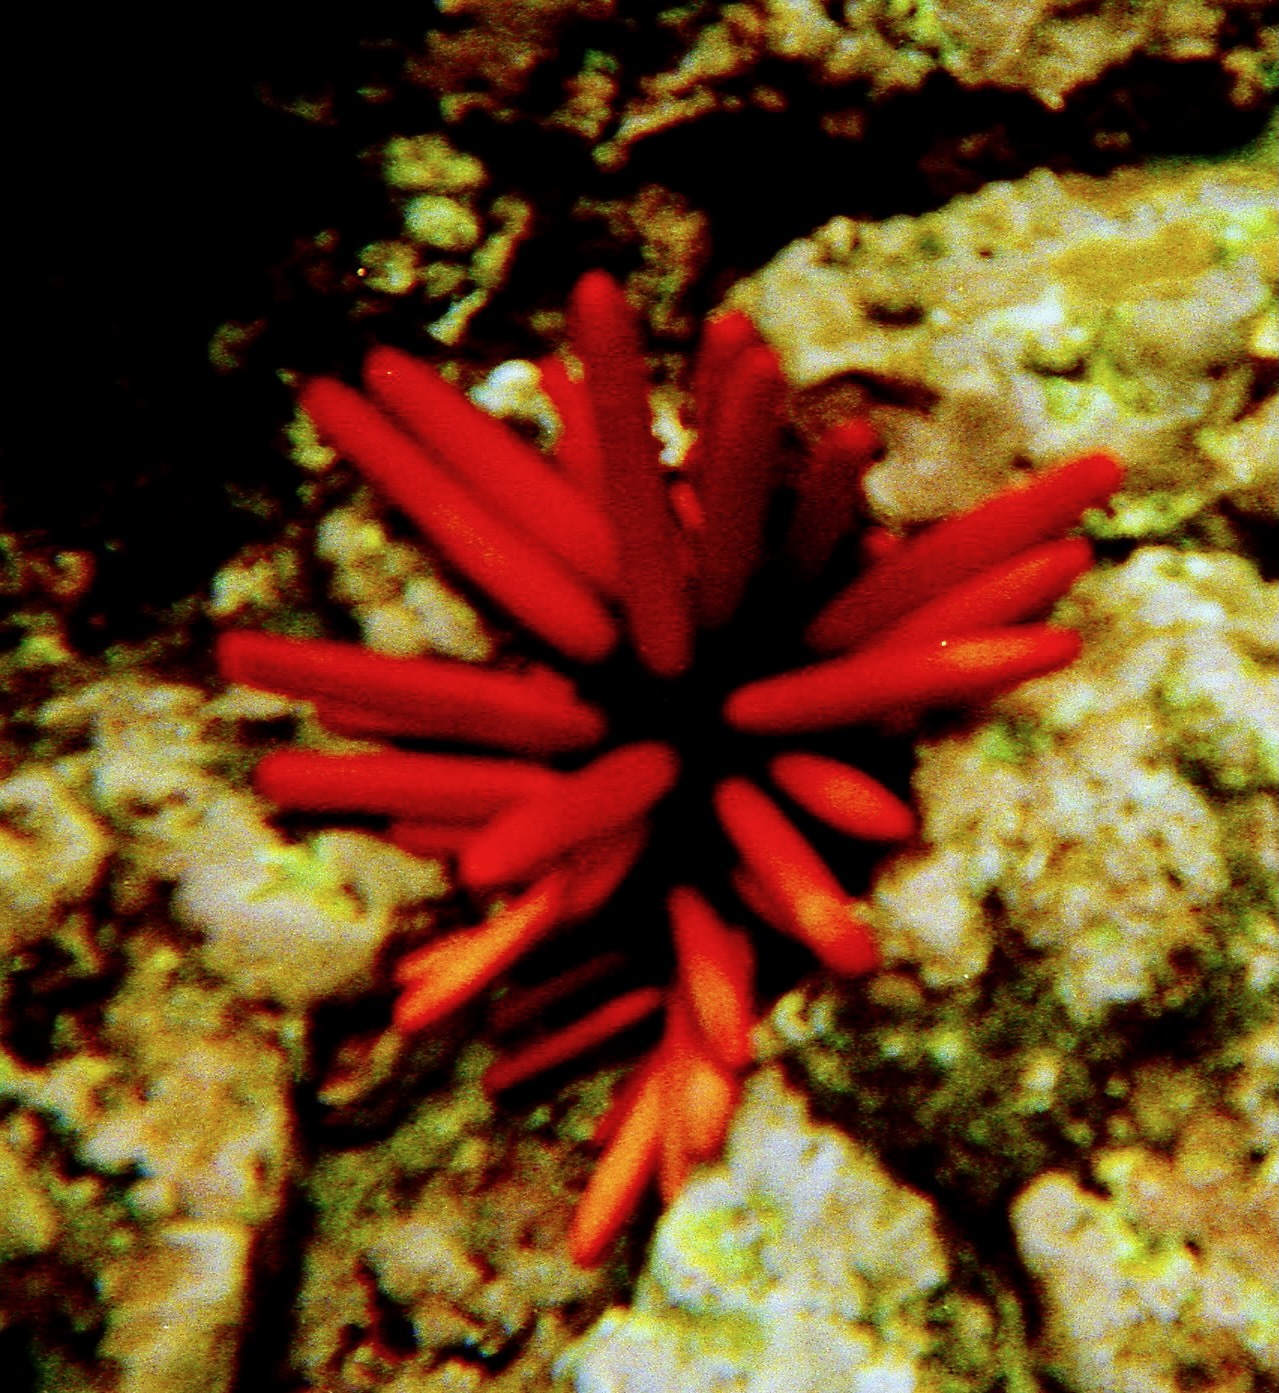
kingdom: Animalia
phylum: Echinodermata
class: Echinoidea
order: Camarodonta
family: Echinometridae
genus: Heterocentrotus
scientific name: Heterocentrotus mamillatus
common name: Slate pencil urchin
